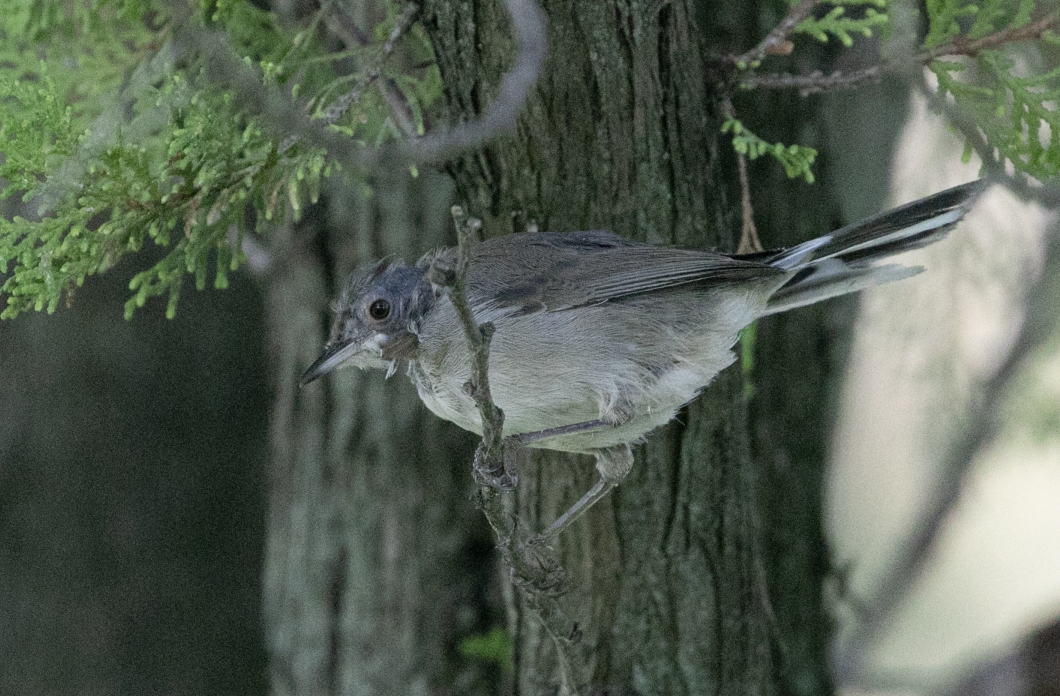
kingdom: Animalia
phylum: Chordata
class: Aves
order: Passeriformes
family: Sylviidae
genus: Curruca
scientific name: Curruca melanocephala
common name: Sardinian warbler
